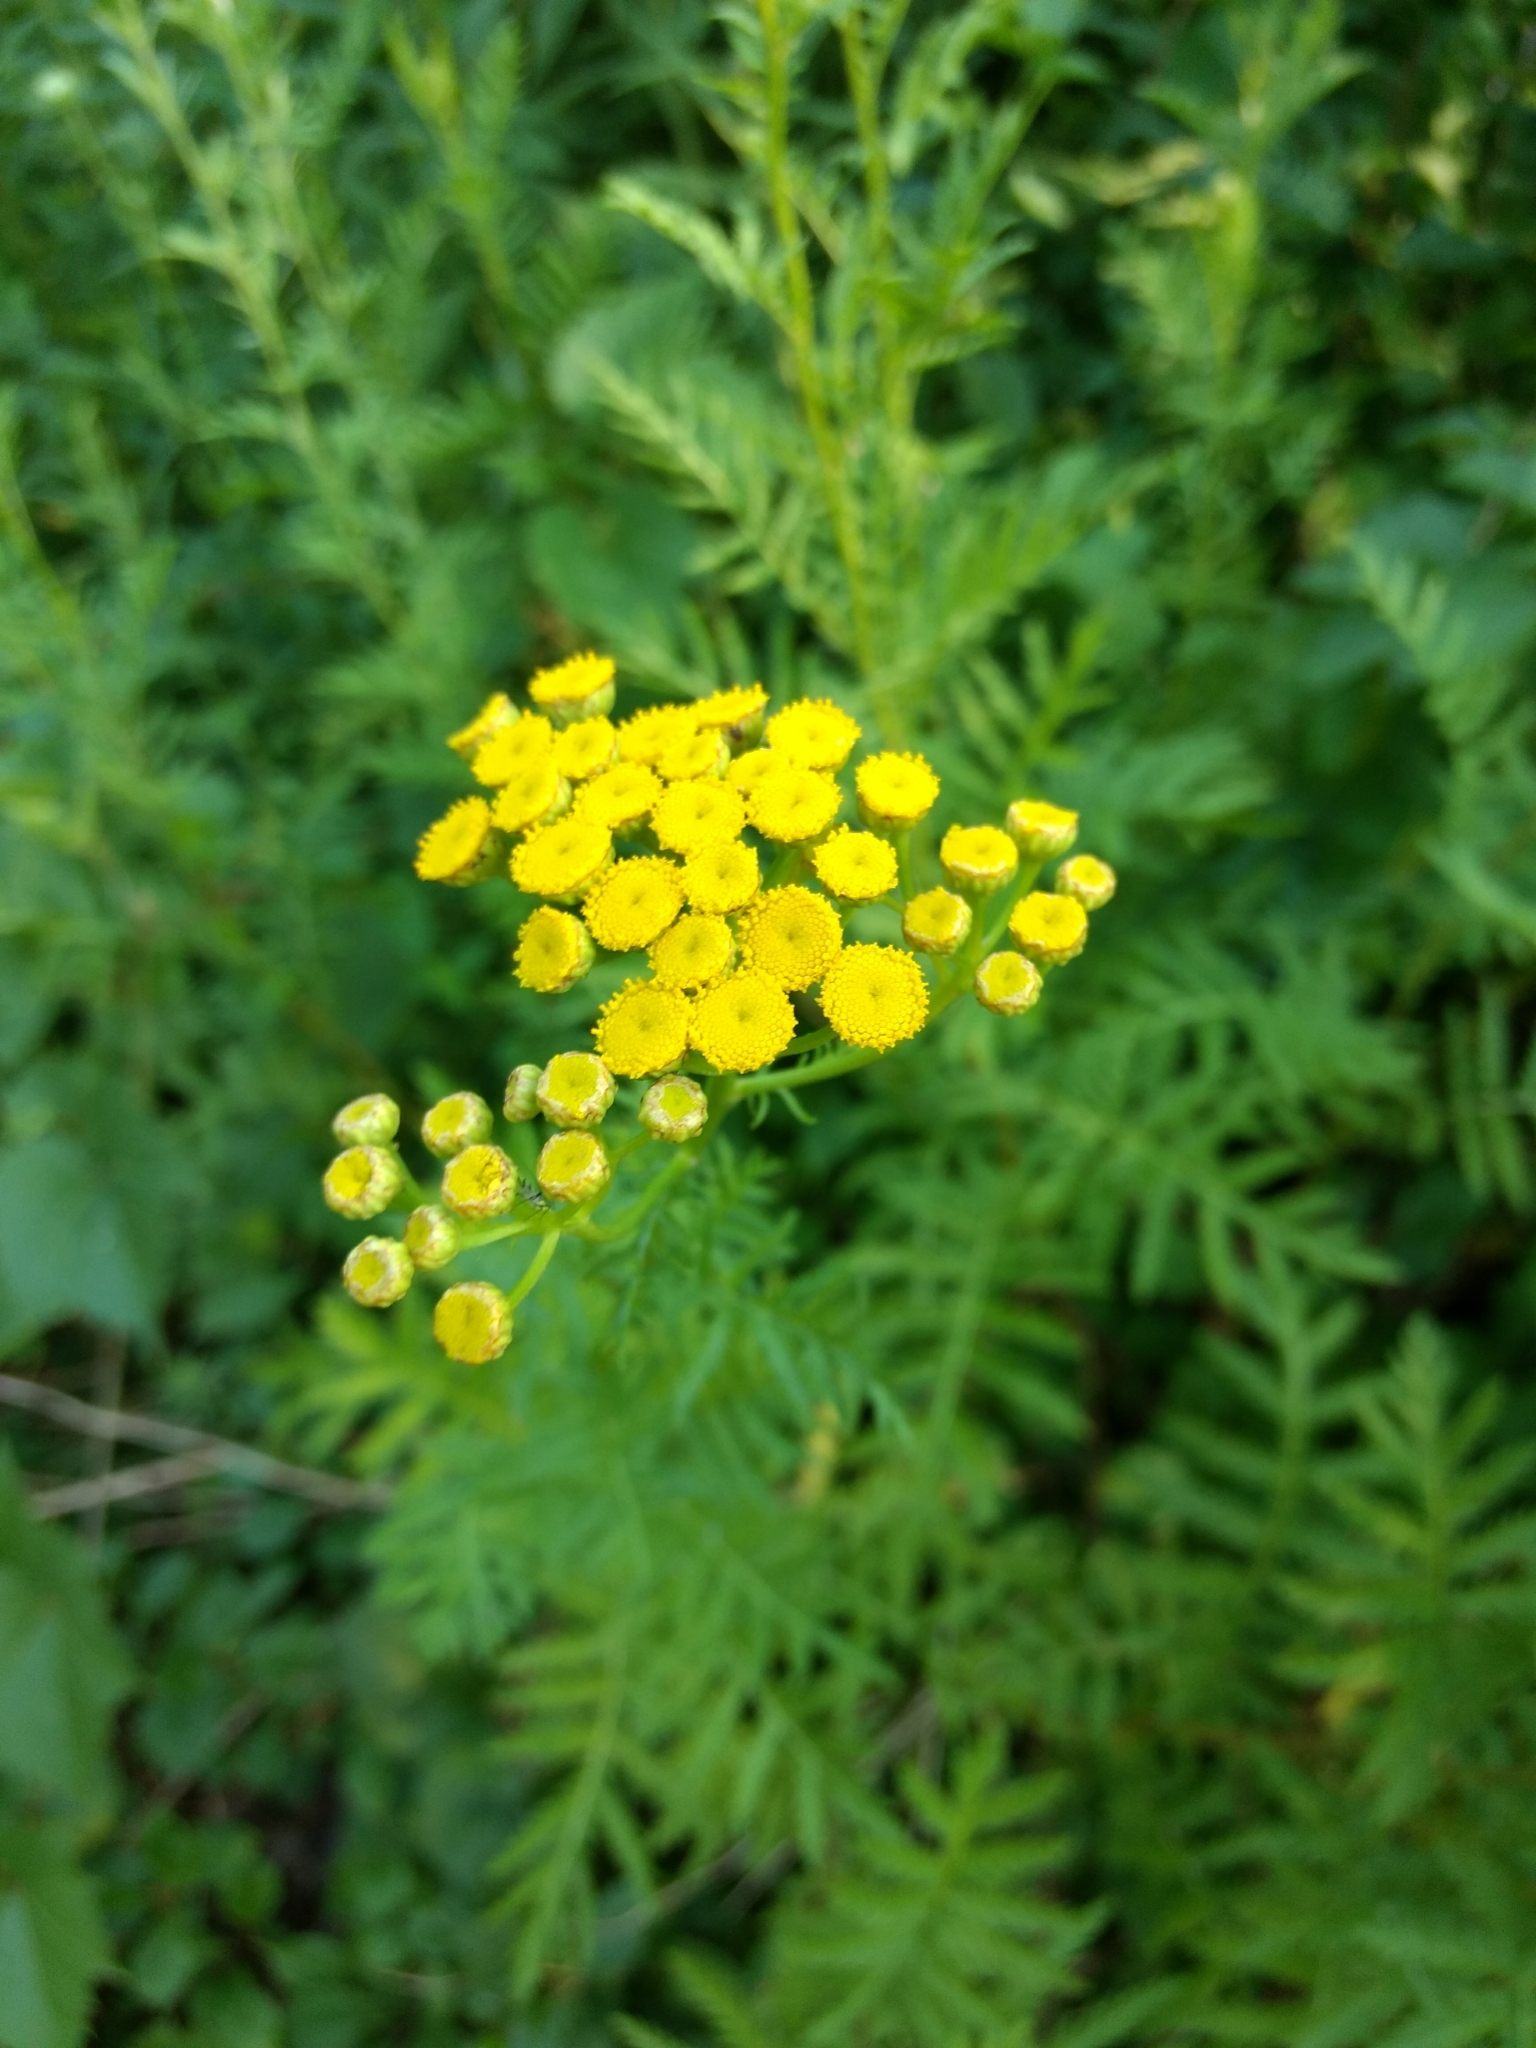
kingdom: Plantae
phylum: Tracheophyta
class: Magnoliopsida
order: Asterales
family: Asteraceae
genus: Tanacetum
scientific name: Tanacetum vulgare
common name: Common tansy
